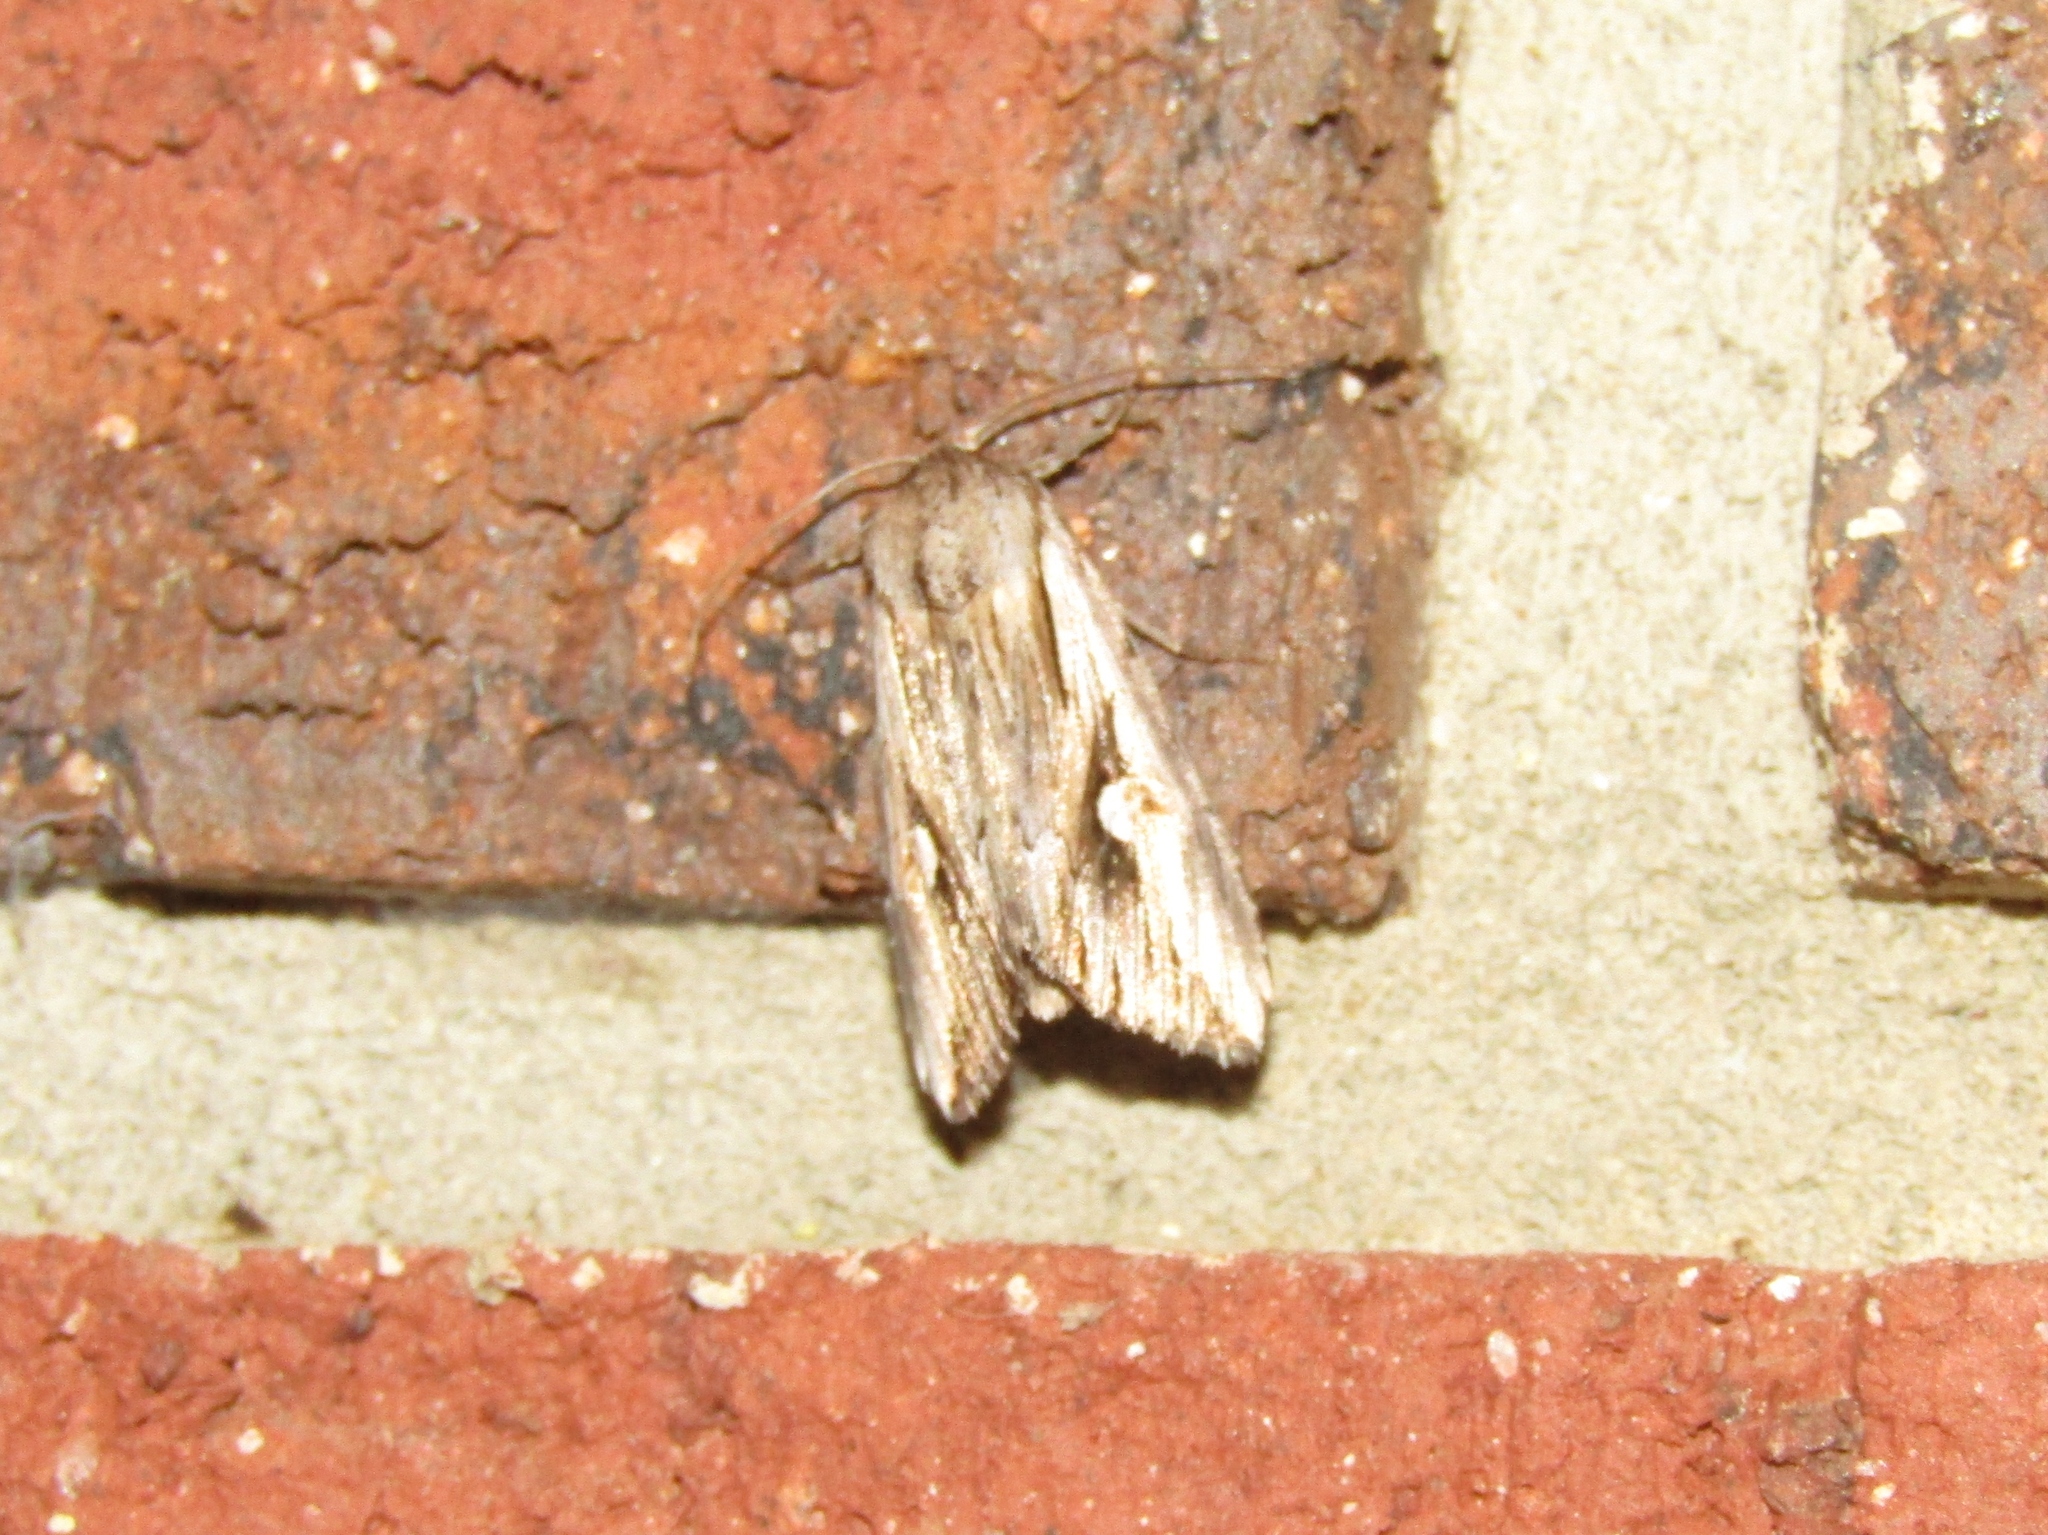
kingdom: Animalia
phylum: Arthropoda
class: Insecta
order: Lepidoptera
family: Noctuidae
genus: Nedra
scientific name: Nedra ramosula
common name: Gray half-spot
